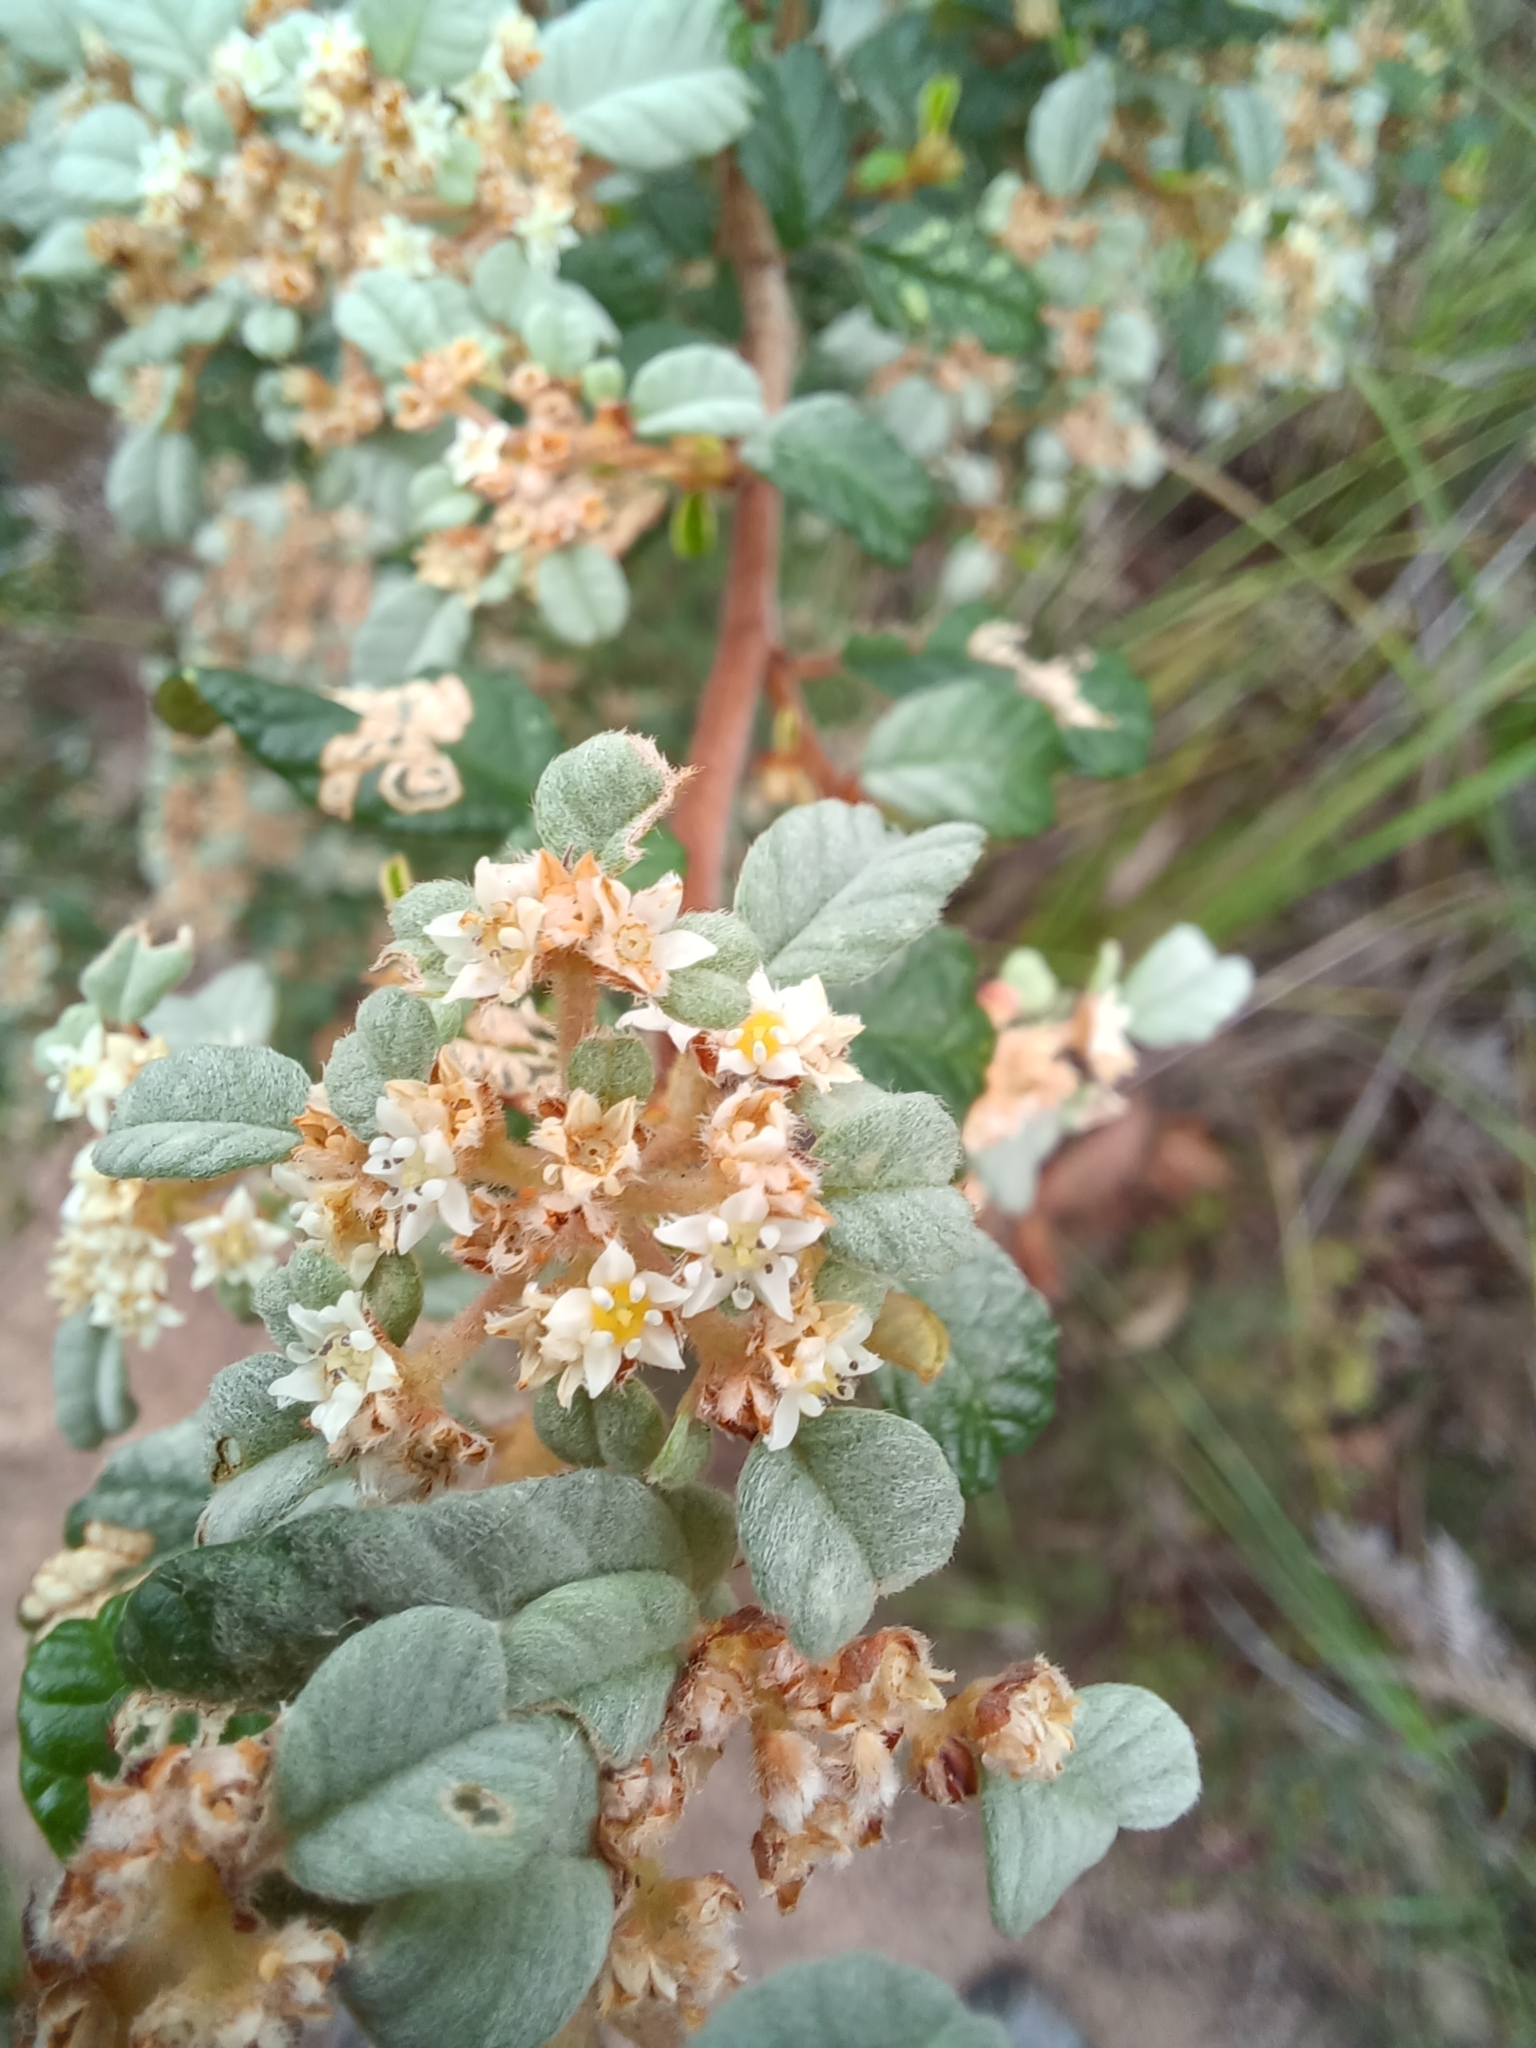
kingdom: Plantae
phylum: Tracheophyta
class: Magnoliopsida
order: Rosales
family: Rhamnaceae
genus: Spyridium
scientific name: Spyridium parvifolium
